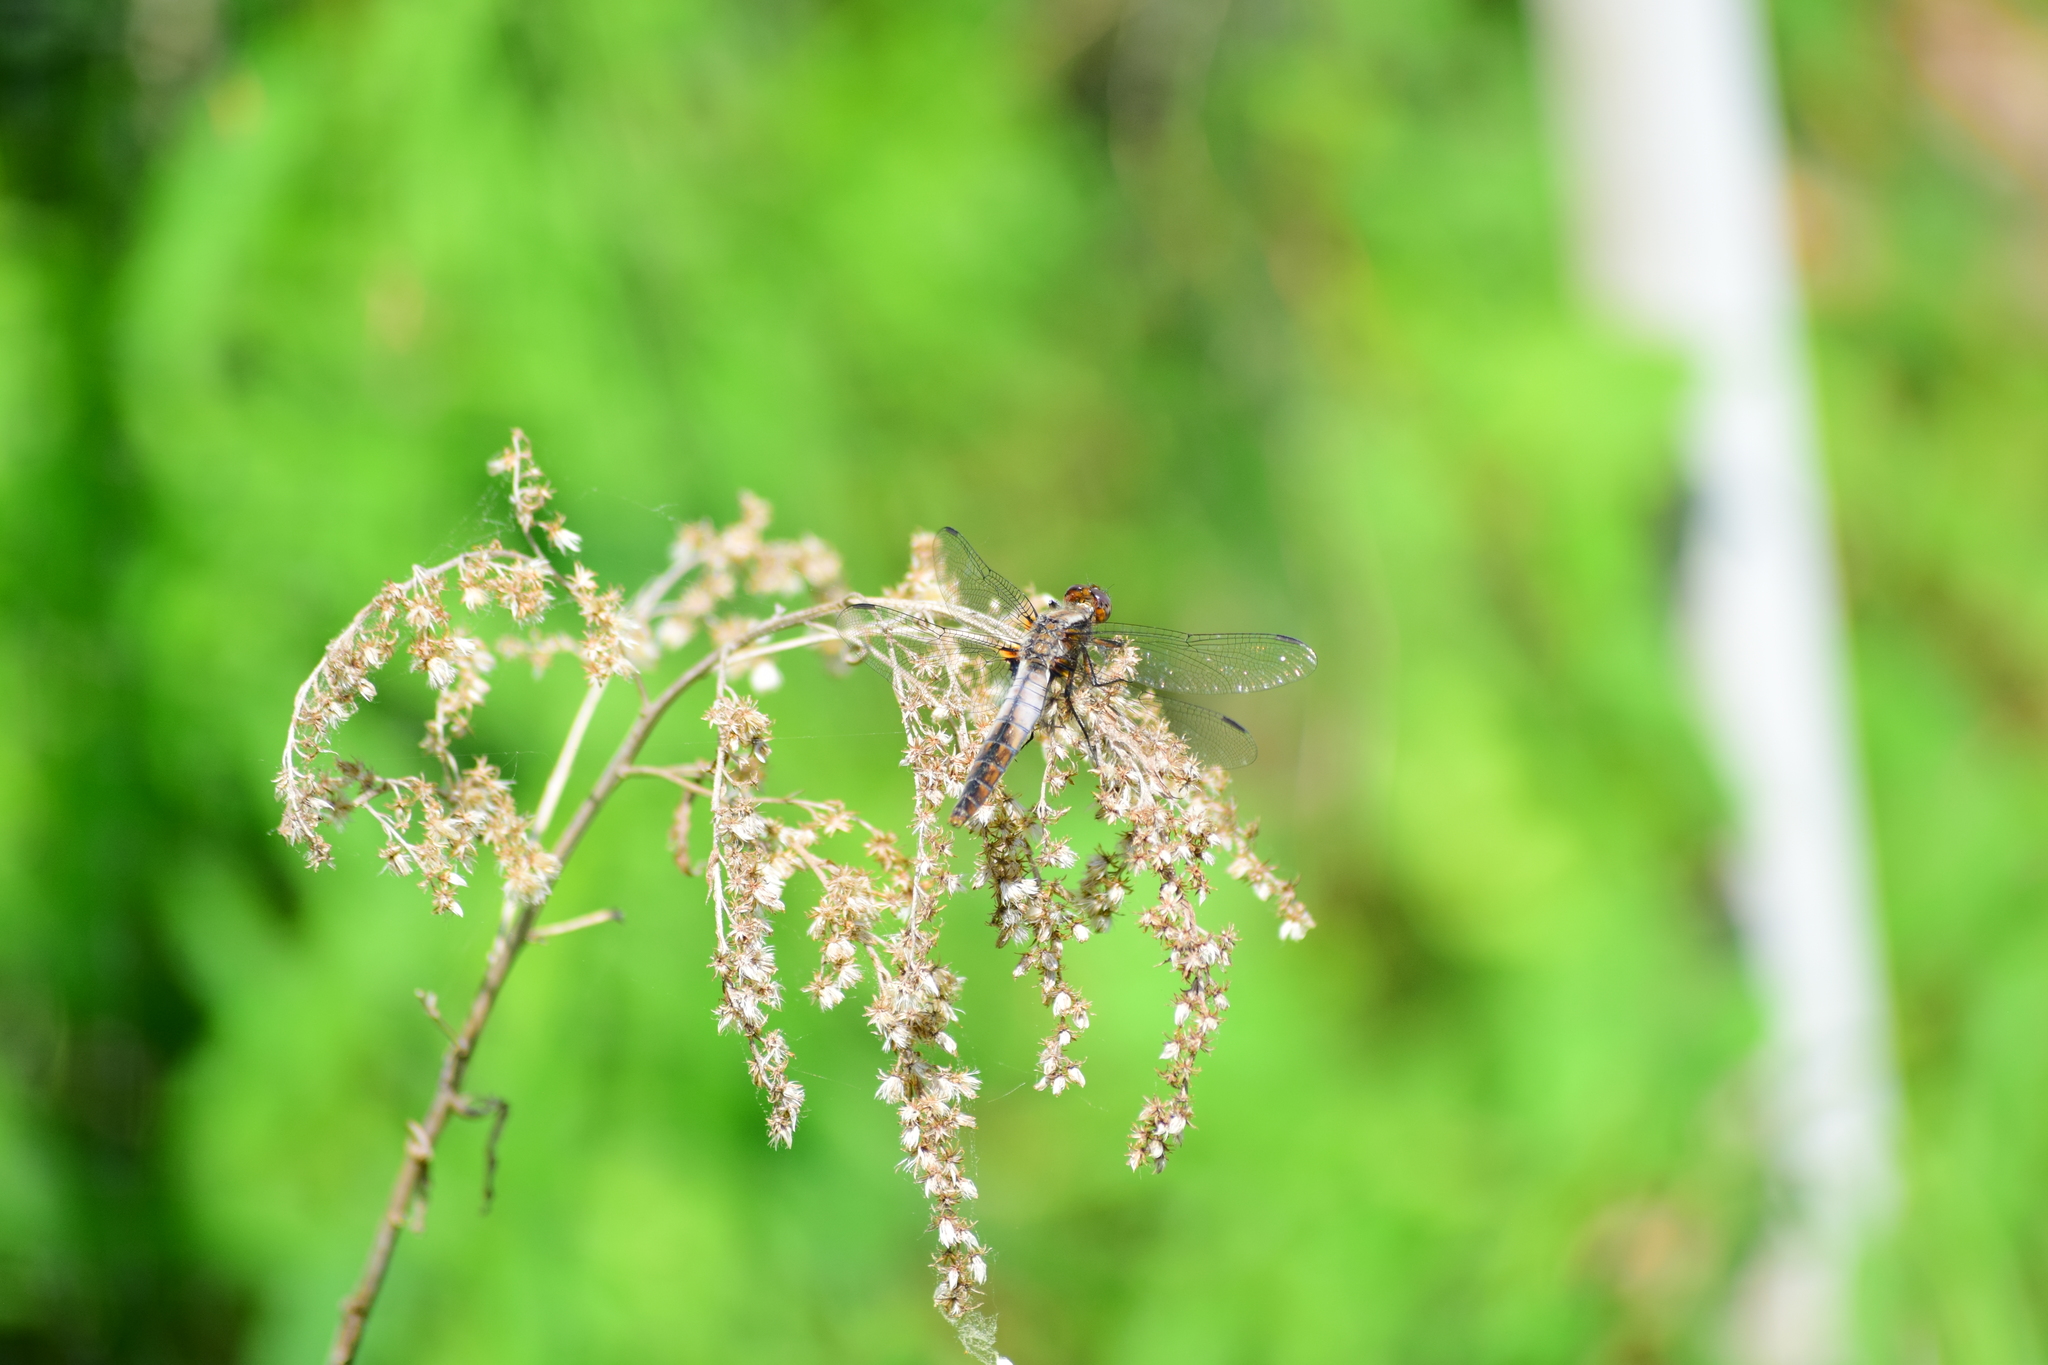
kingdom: Animalia
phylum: Arthropoda
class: Insecta
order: Odonata
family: Libellulidae
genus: Ladona
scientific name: Ladona julia
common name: Chalk-fronted corporal
